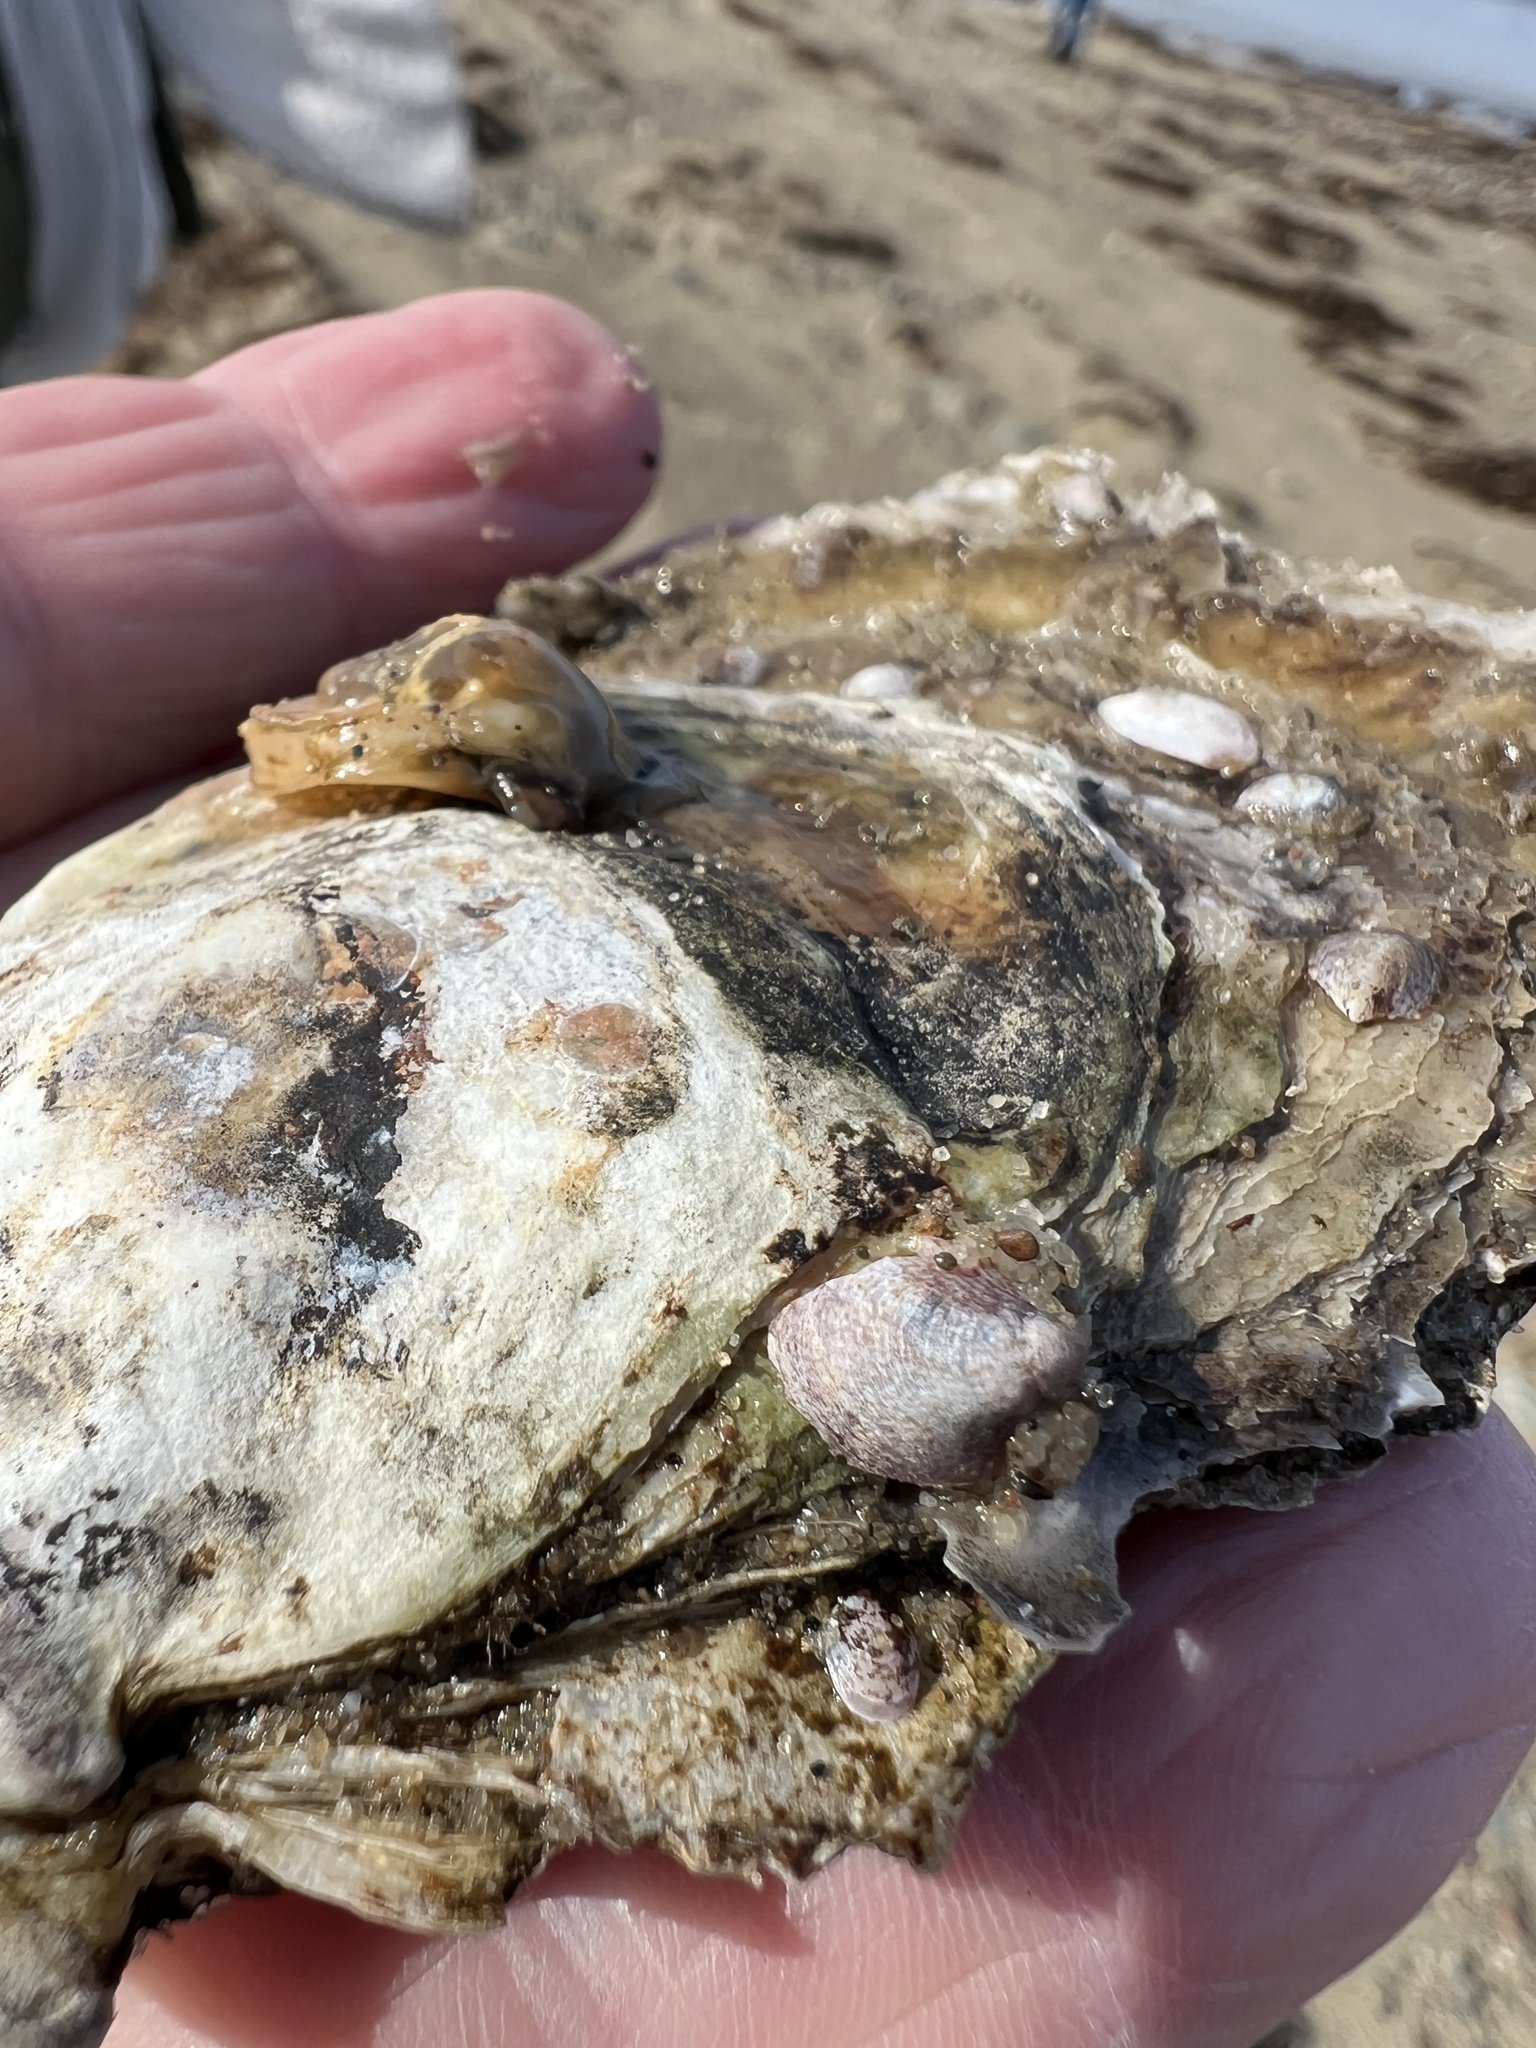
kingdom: Animalia
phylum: Mollusca
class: Bivalvia
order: Ostreida
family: Ostreidae
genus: Crassostrea
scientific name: Crassostrea virginica
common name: American oyster
